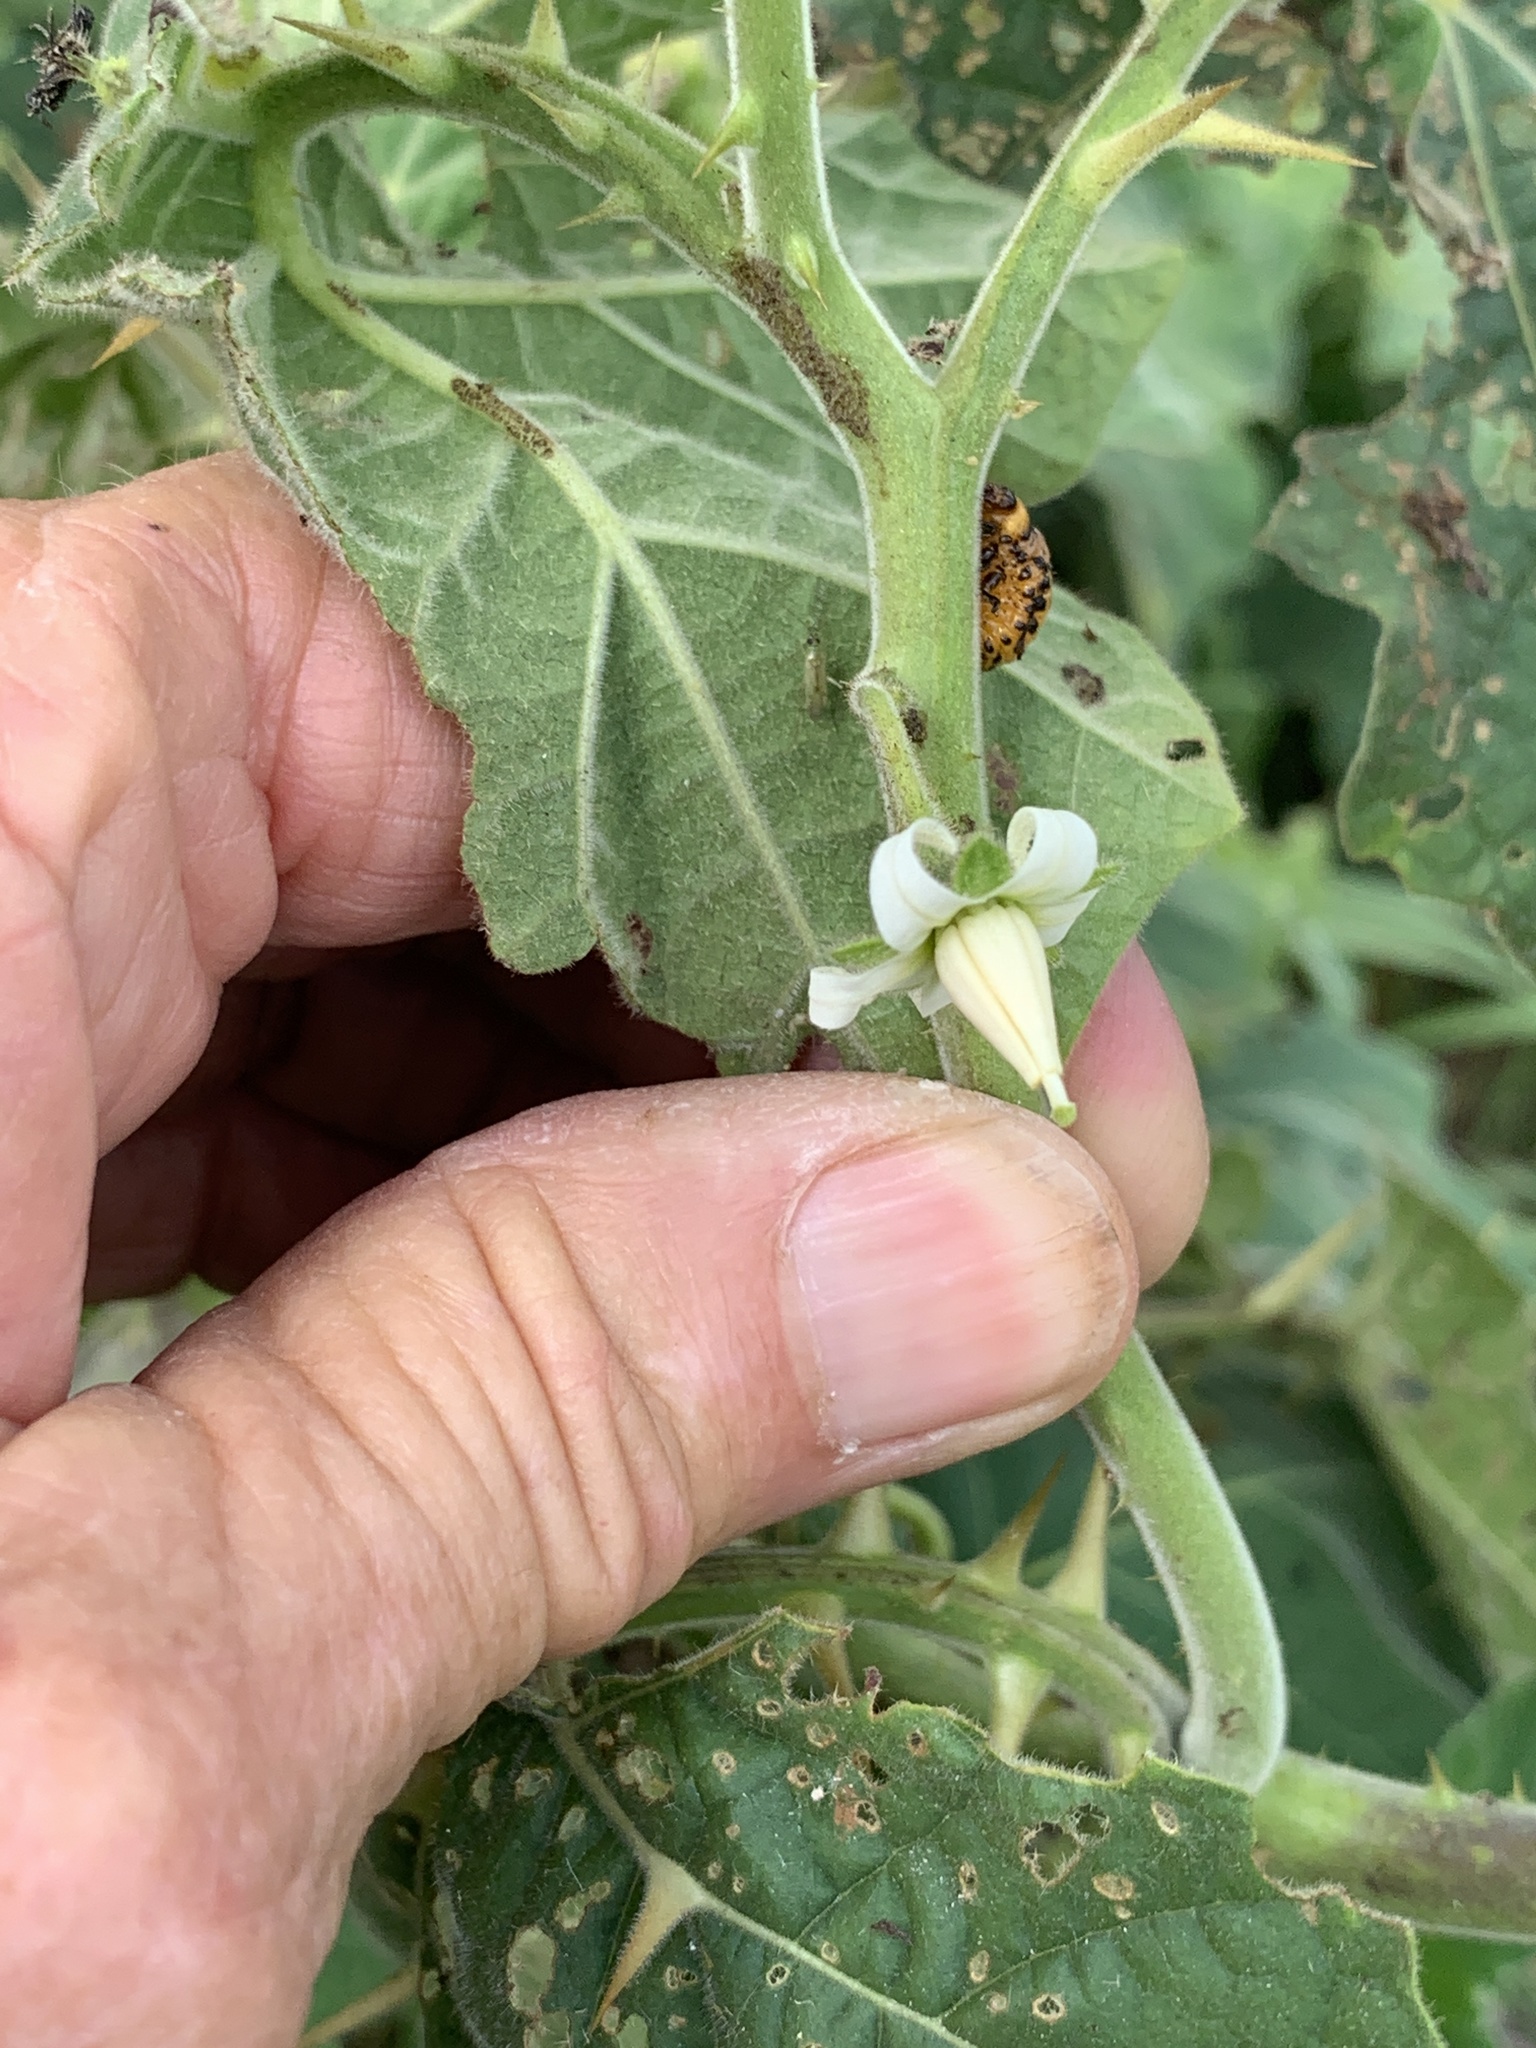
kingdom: Plantae
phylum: Tracheophyta
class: Magnoliopsida
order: Solanales
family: Solanaceae
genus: Solanum
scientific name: Solanum viarum
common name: Tropical soda apple
